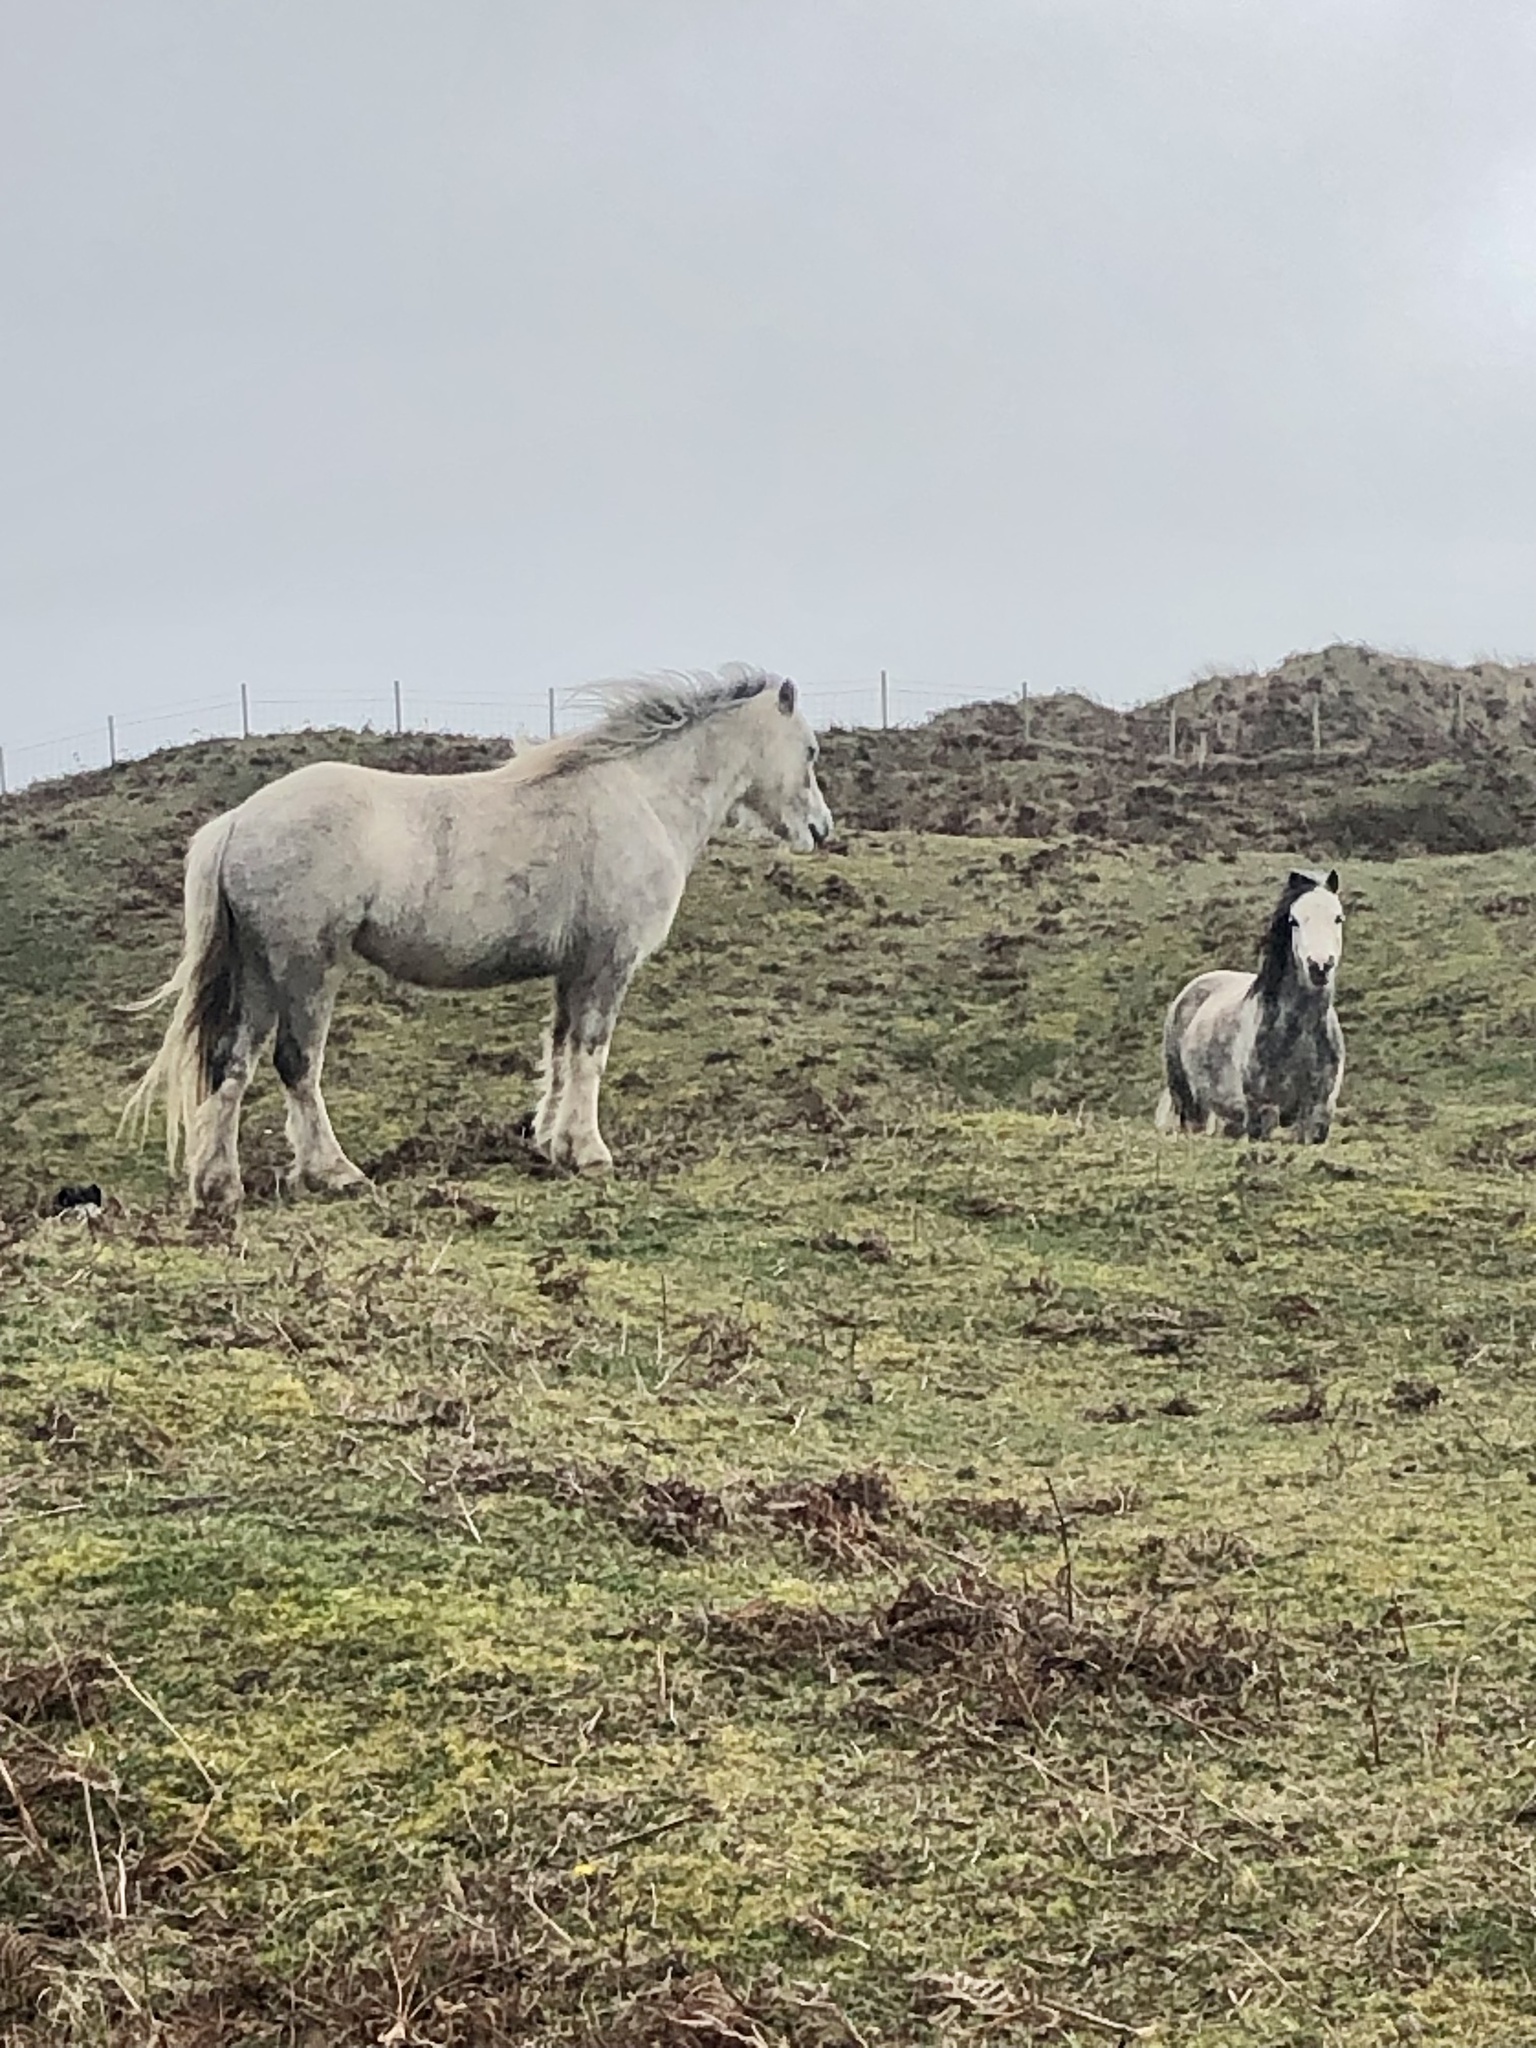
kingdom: Animalia
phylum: Chordata
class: Mammalia
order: Perissodactyla
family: Equidae
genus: Equus
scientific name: Equus caballus
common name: Horse
